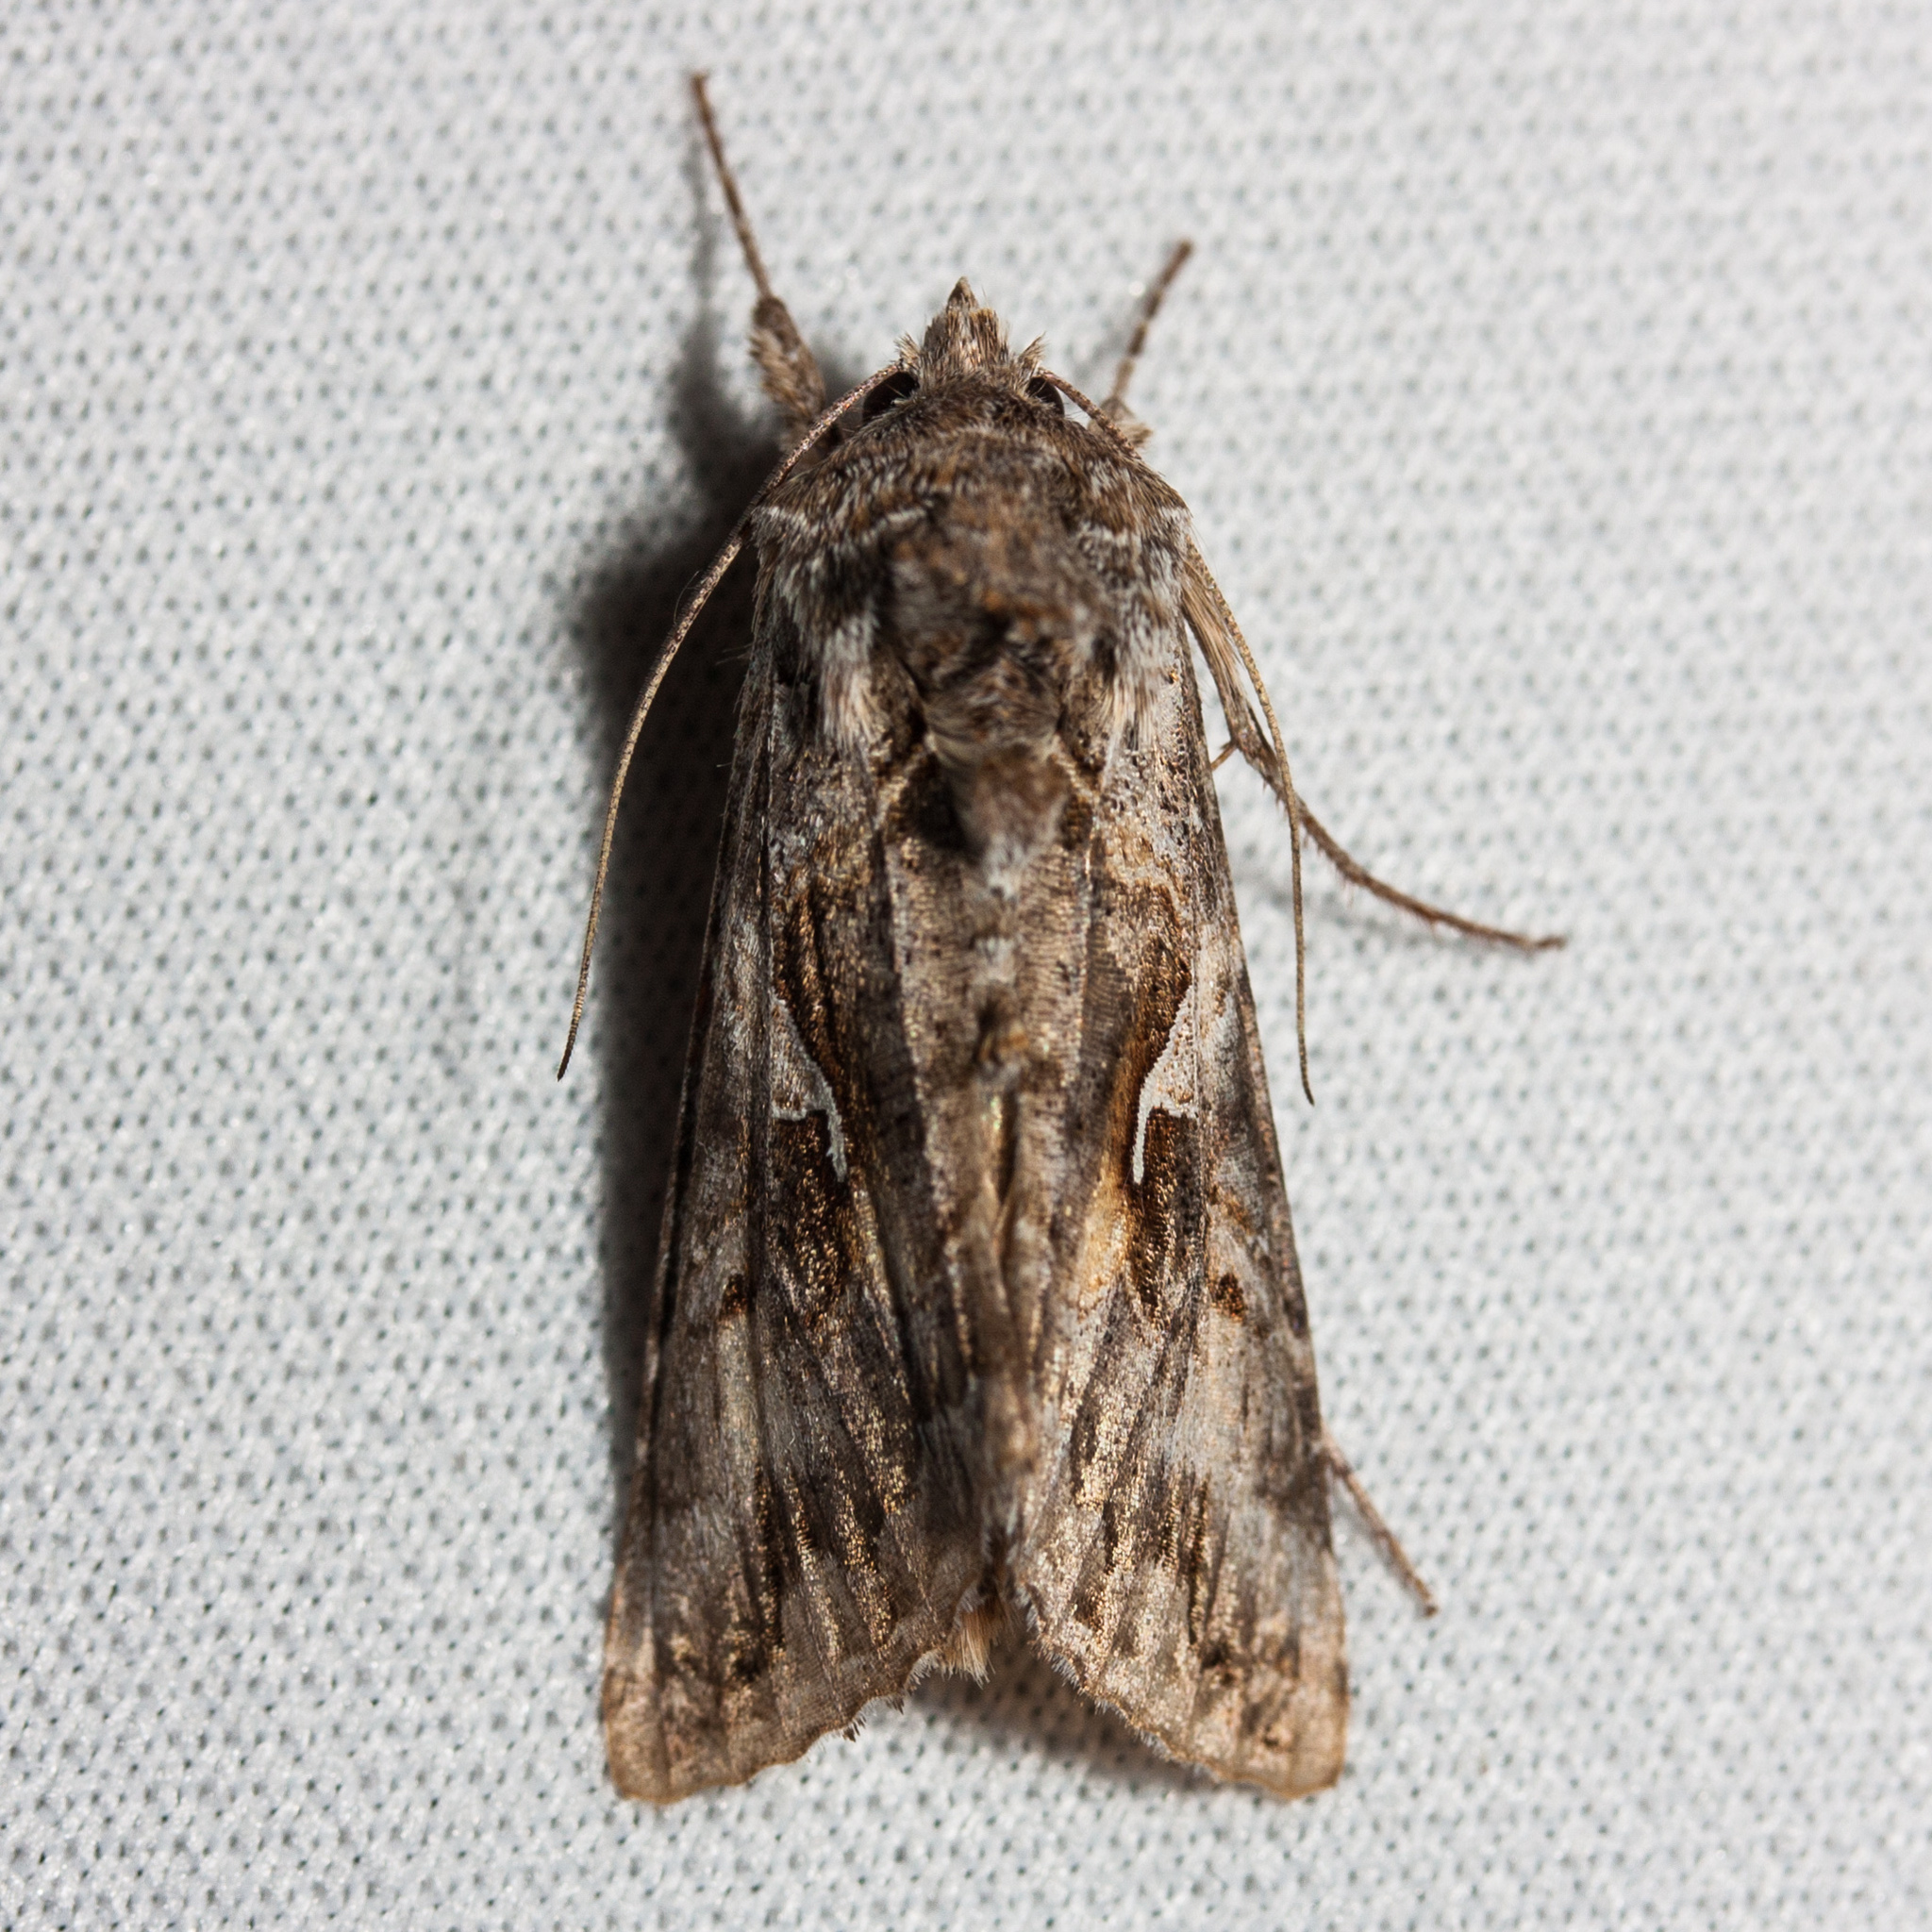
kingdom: Animalia
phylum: Arthropoda
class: Insecta
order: Lepidoptera
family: Noctuidae
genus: Autographa
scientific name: Autographa californica
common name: Alfalfa looper
